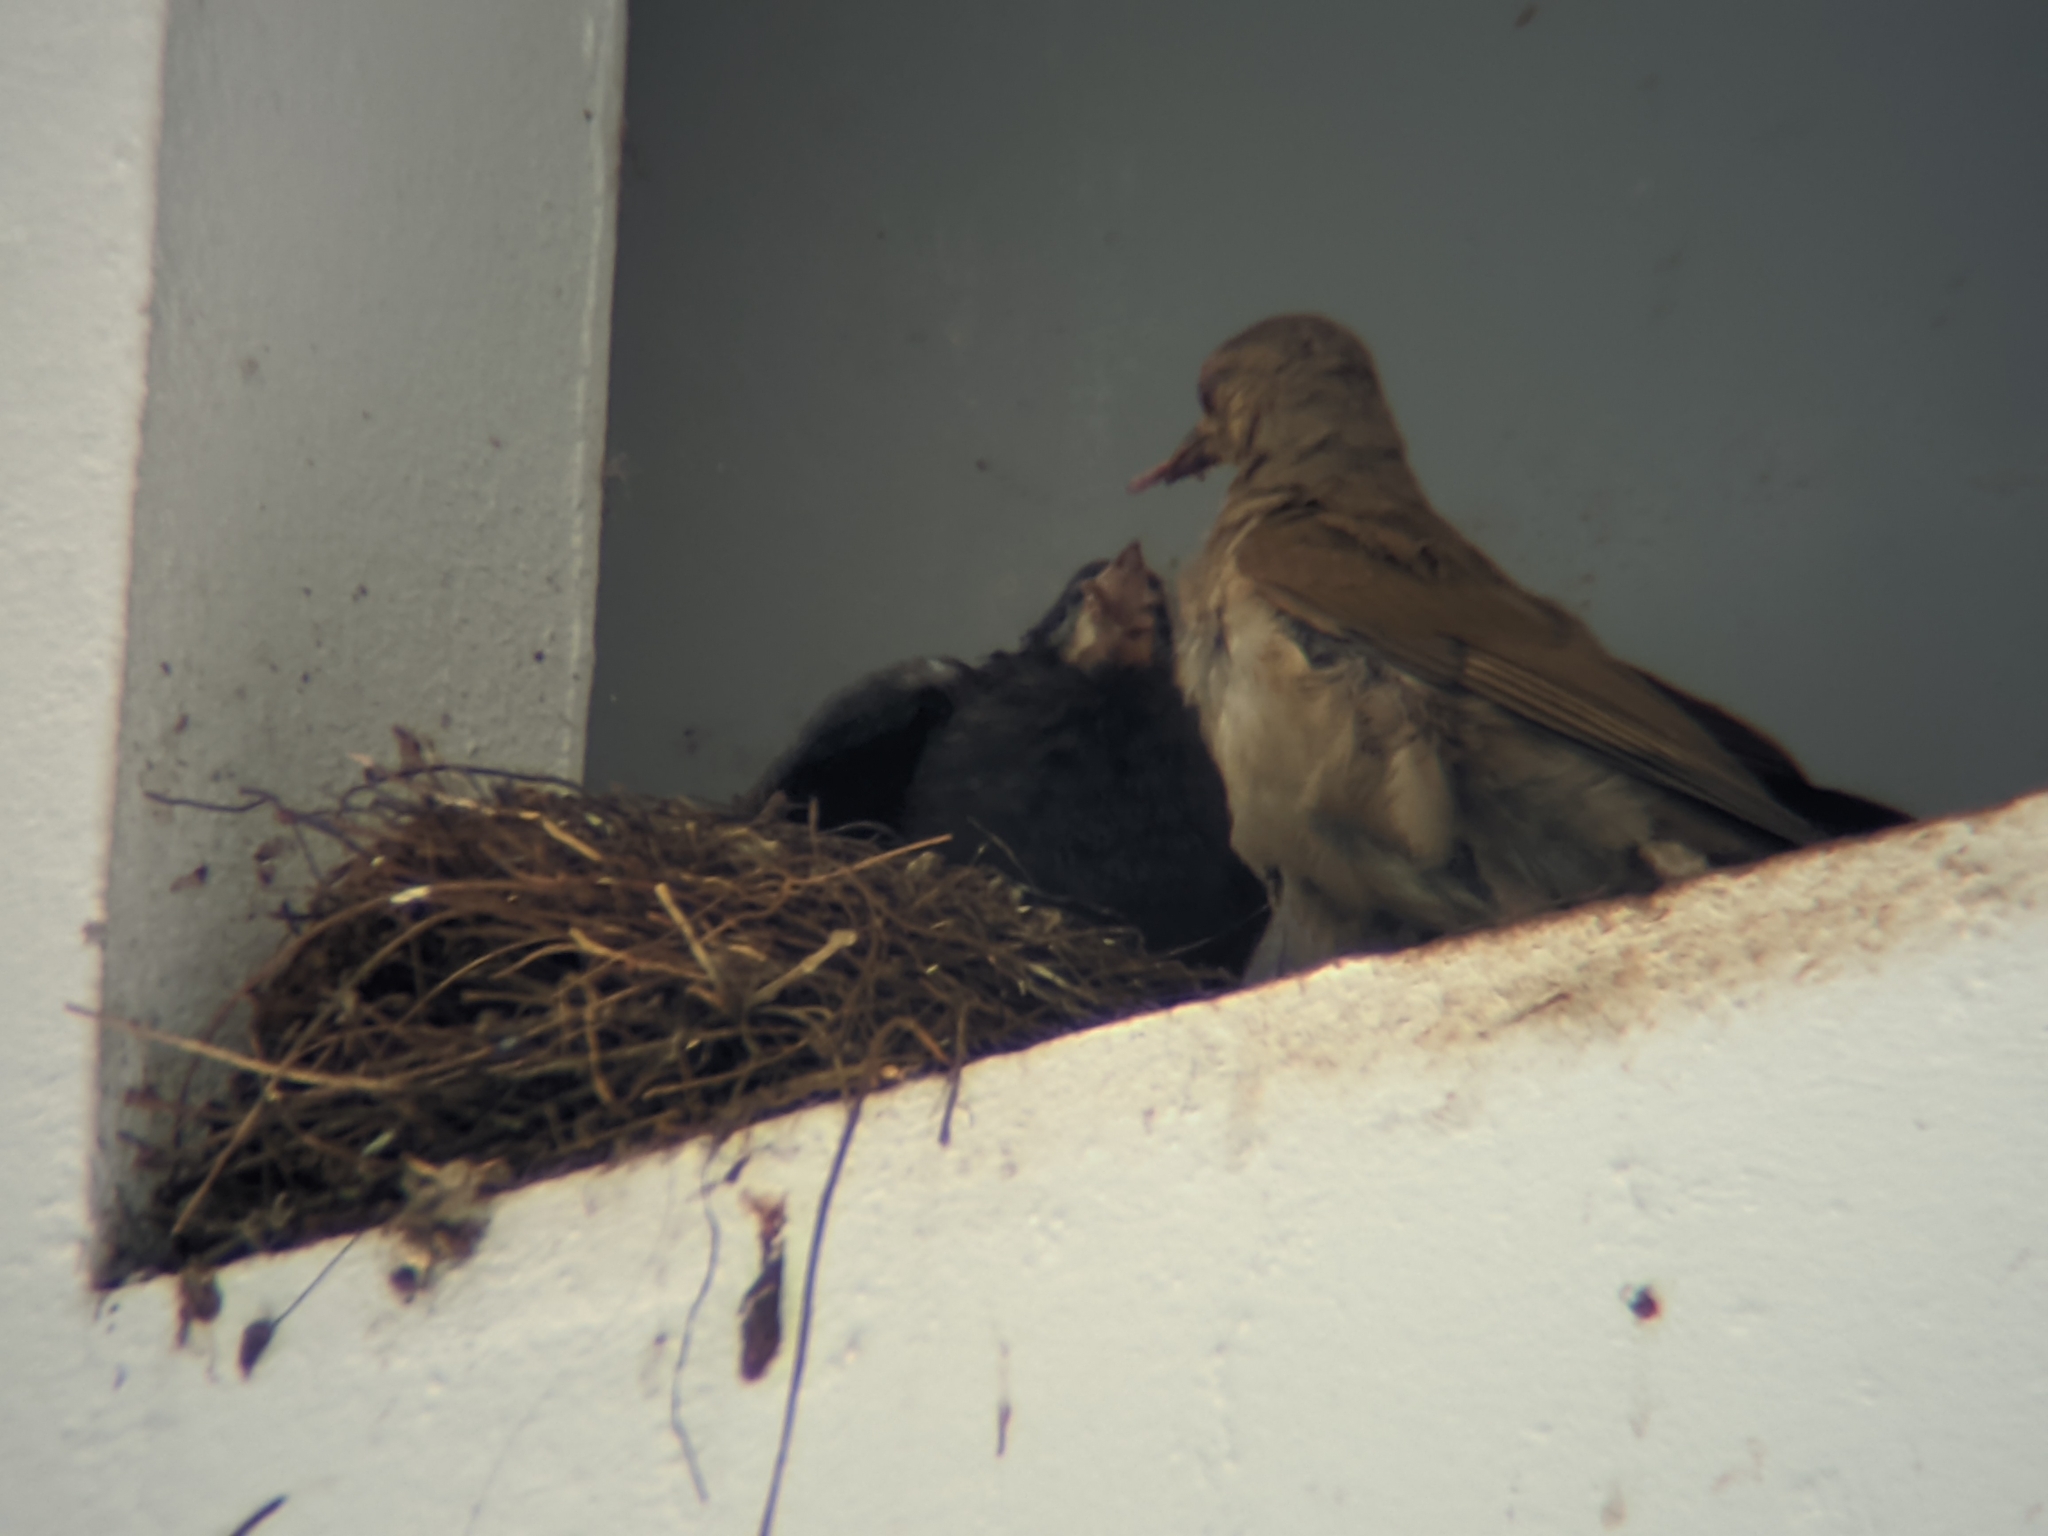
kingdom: Animalia
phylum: Chordata
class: Aves
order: Passeriformes
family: Icteridae
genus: Molothrus
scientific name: Molothrus bonariensis
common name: Shiny cowbird
